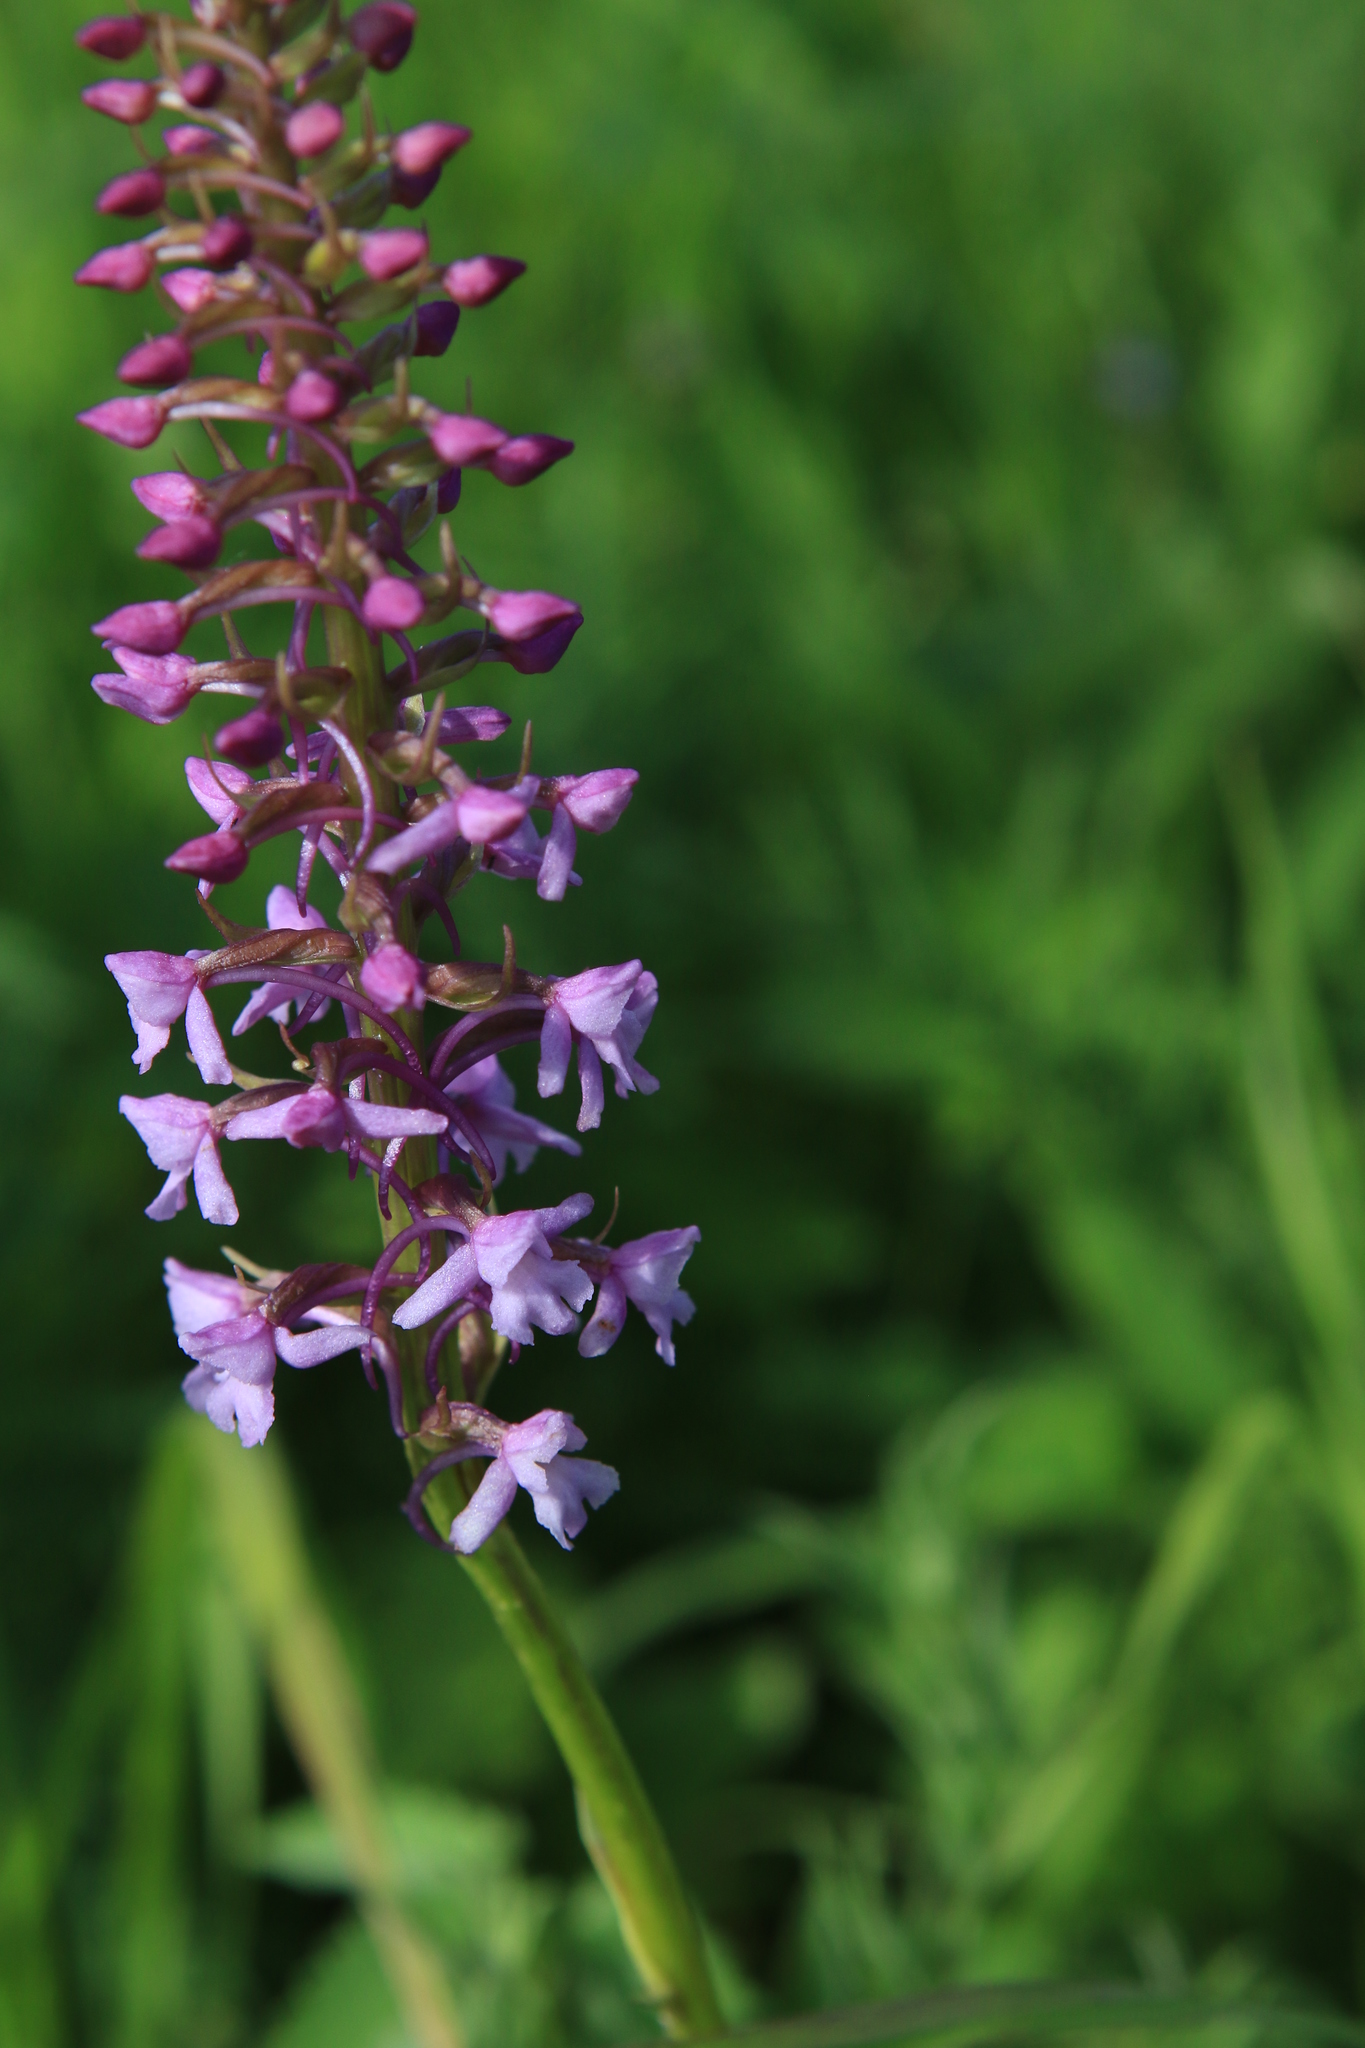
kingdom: Plantae
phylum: Tracheophyta
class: Liliopsida
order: Asparagales
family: Orchidaceae
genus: Gymnadenia
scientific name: Gymnadenia conopsea
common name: Fragrant orchid
